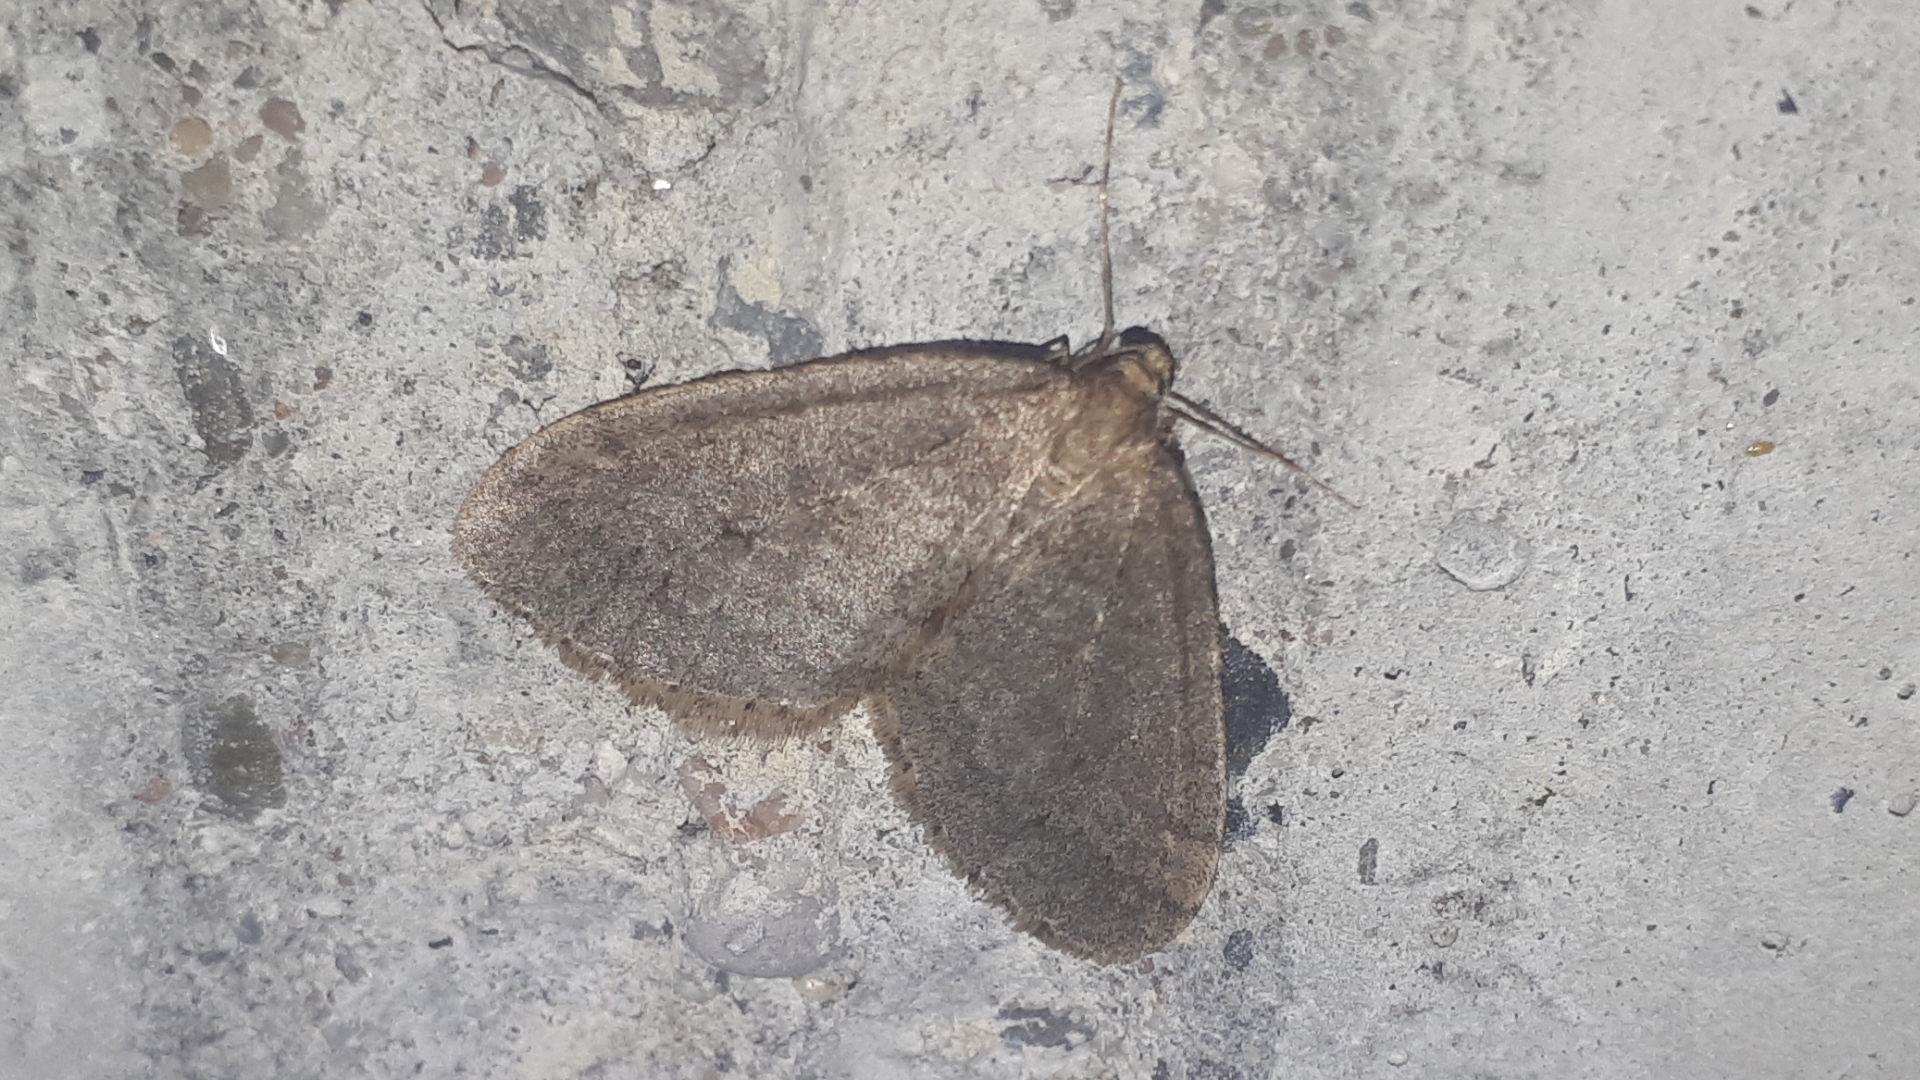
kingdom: Animalia
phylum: Arthropoda
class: Insecta
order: Lepidoptera
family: Geometridae
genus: Operophtera
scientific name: Operophtera brumata
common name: Winter moth
